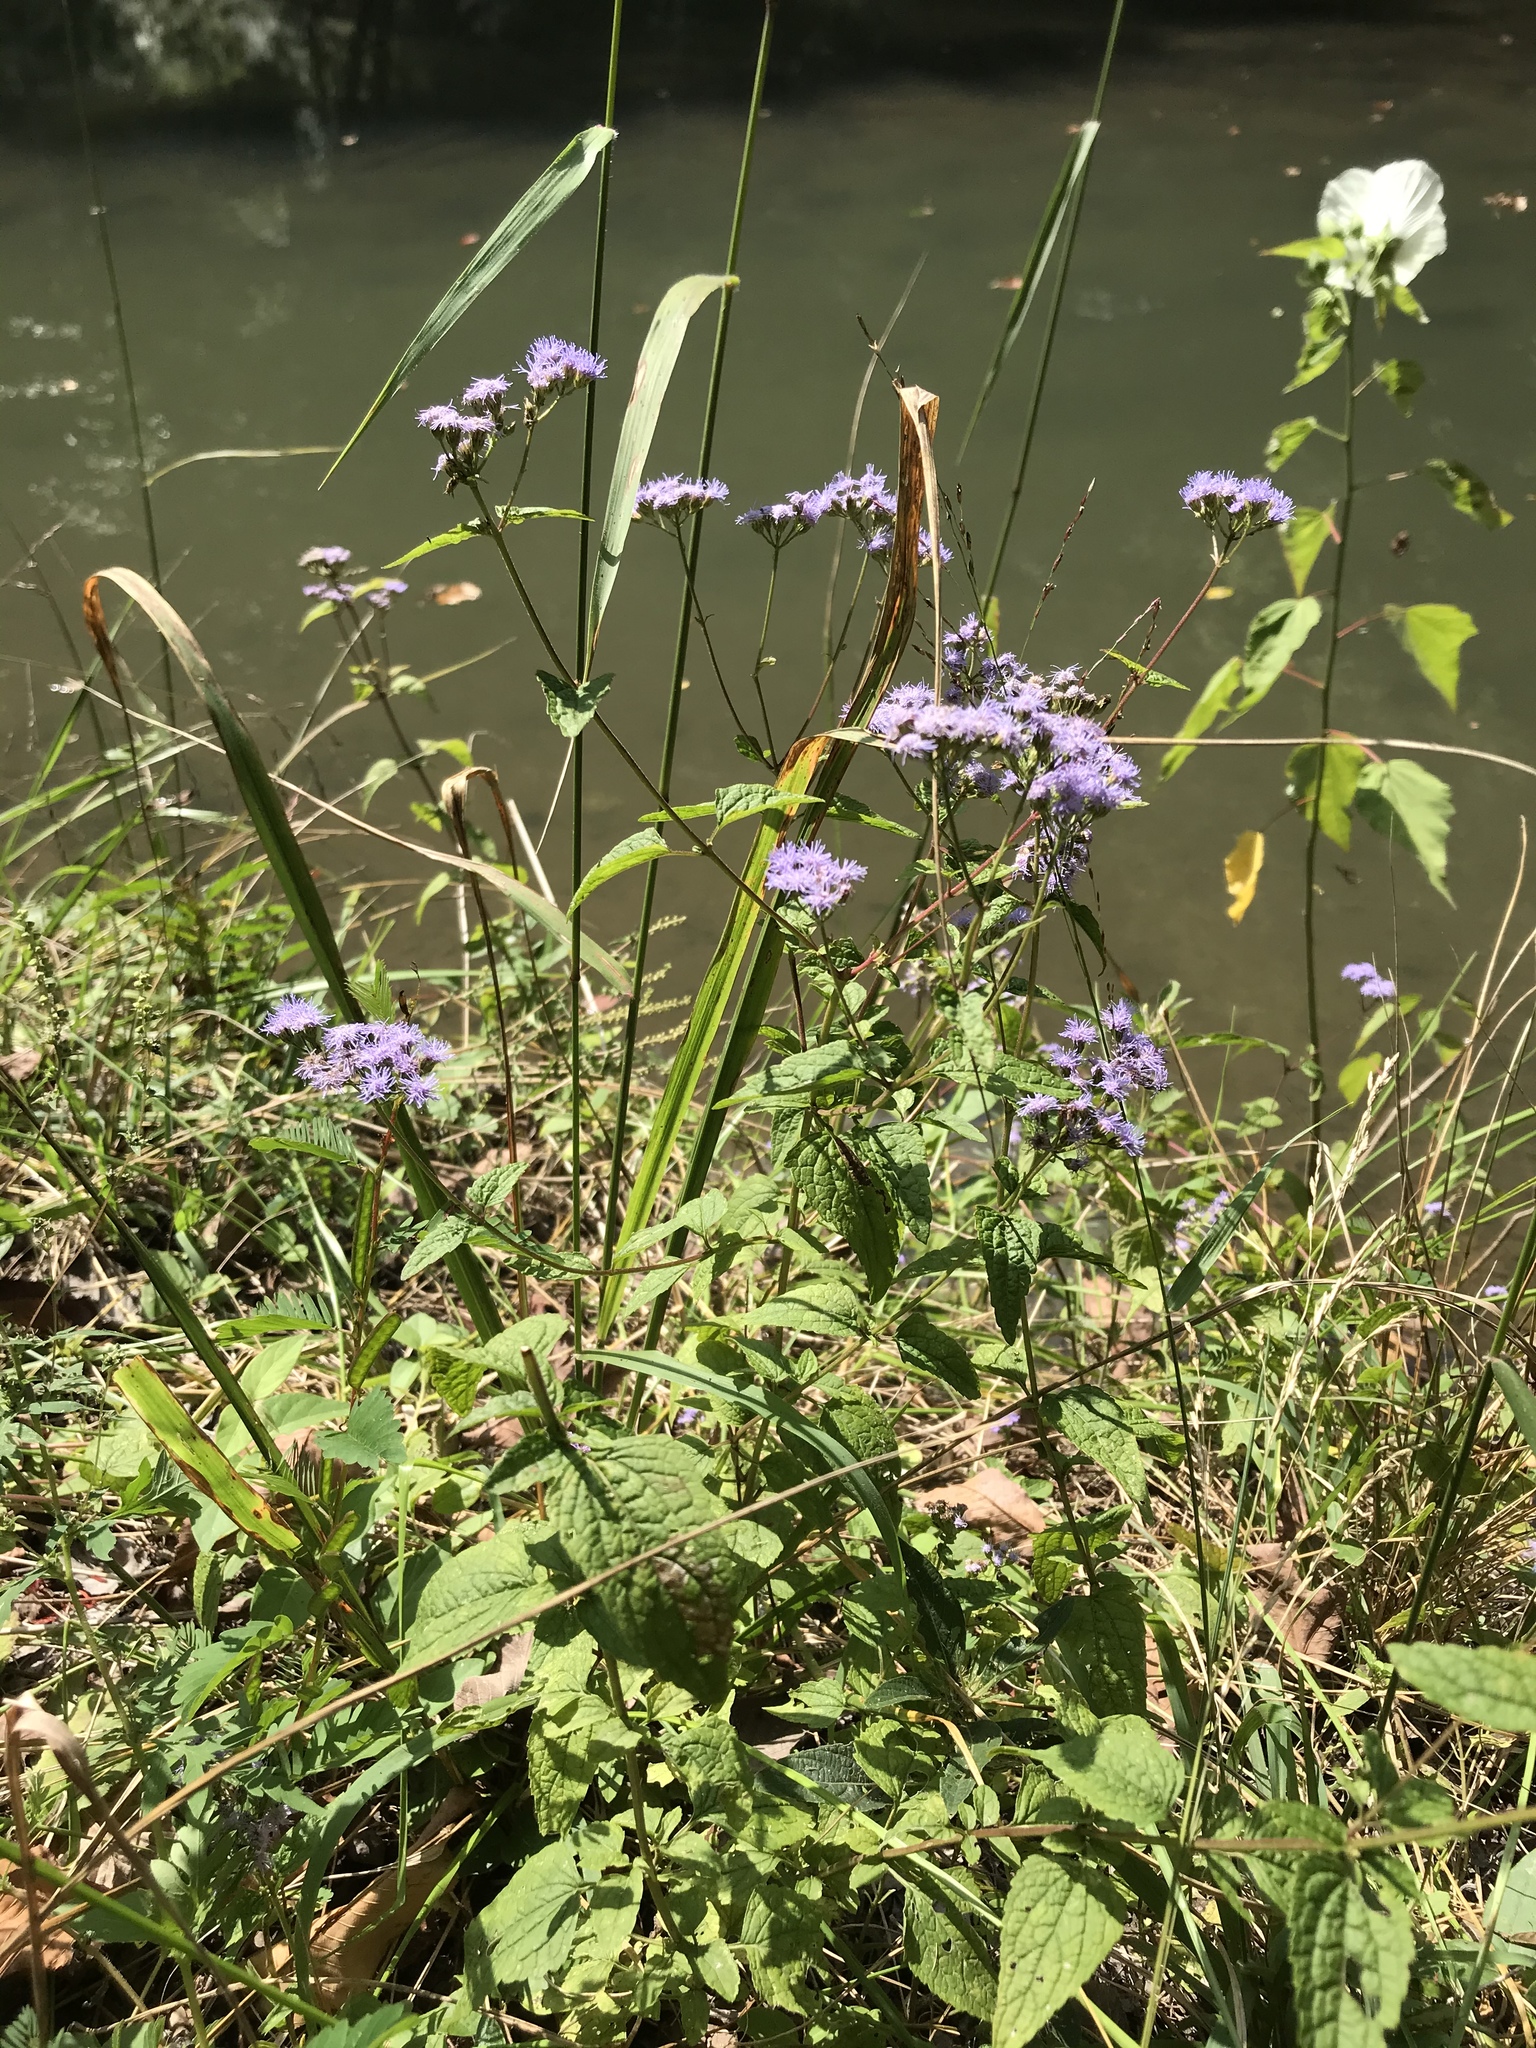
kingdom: Plantae
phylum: Tracheophyta
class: Magnoliopsida
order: Asterales
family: Asteraceae
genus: Conoclinium
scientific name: Conoclinium coelestinum
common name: Blue mistflower
